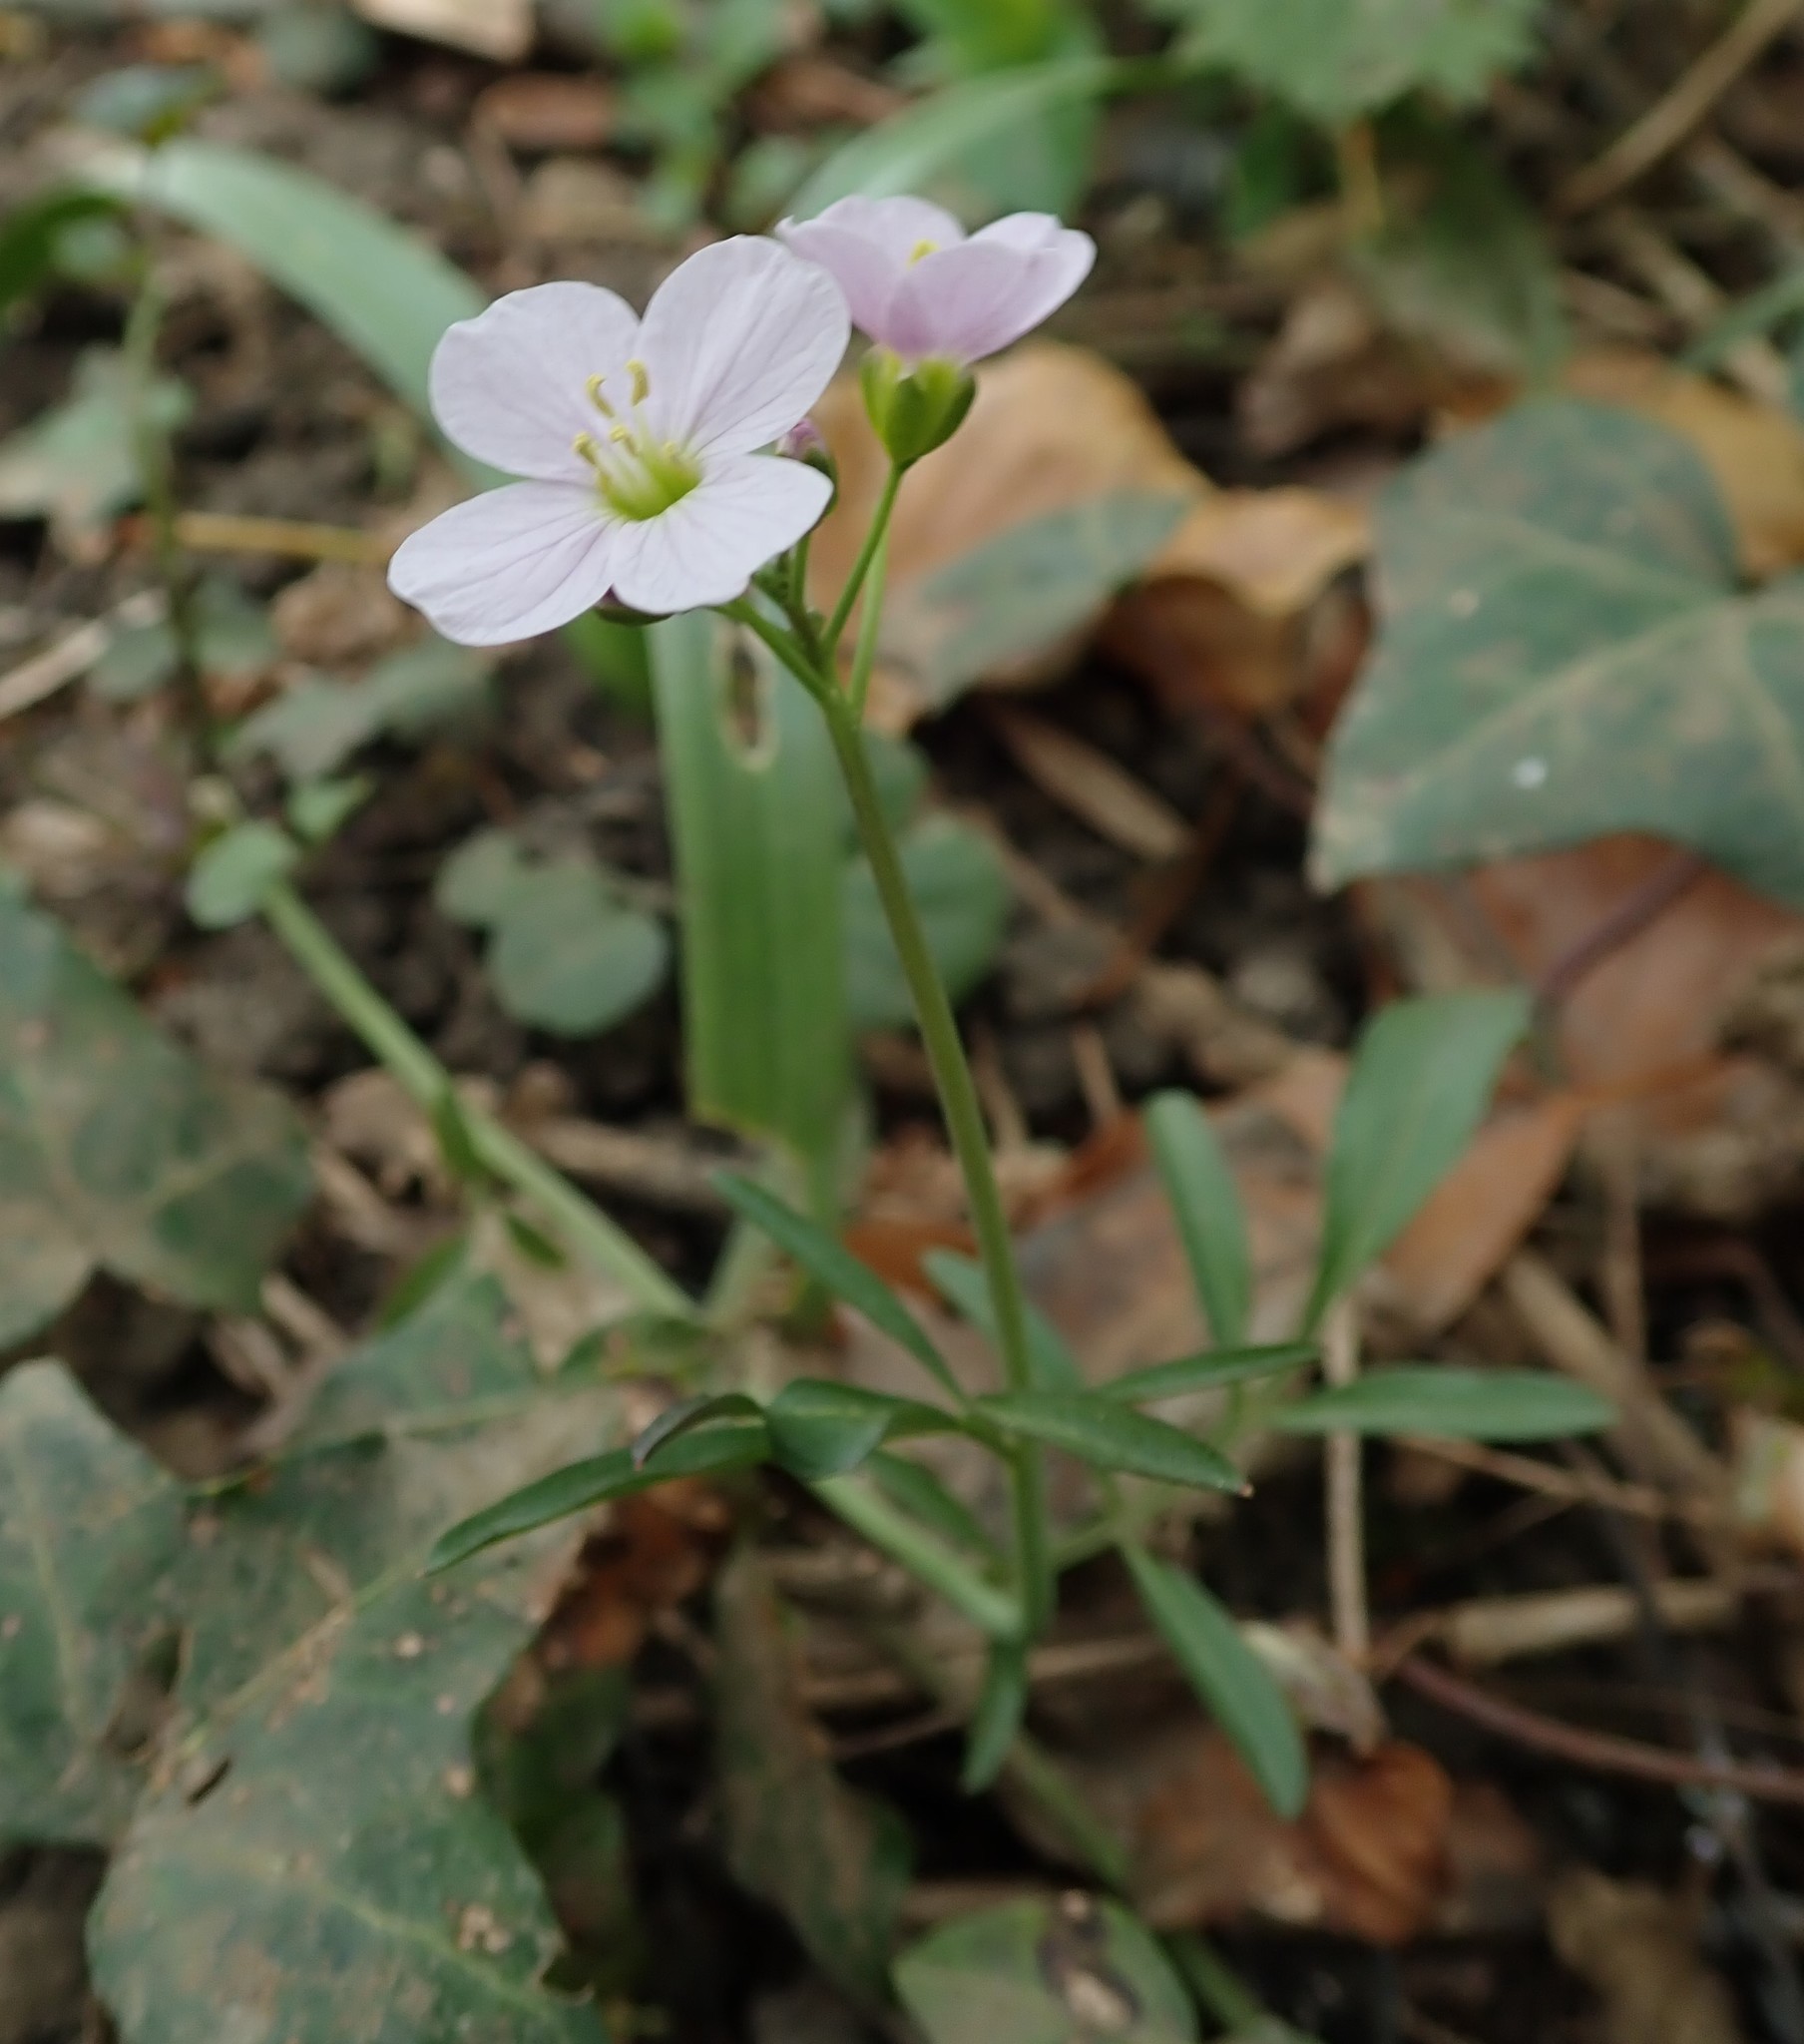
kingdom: Plantae
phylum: Tracheophyta
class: Magnoliopsida
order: Brassicales
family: Brassicaceae
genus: Cardamine
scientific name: Cardamine pratensis
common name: Cuckoo flower
